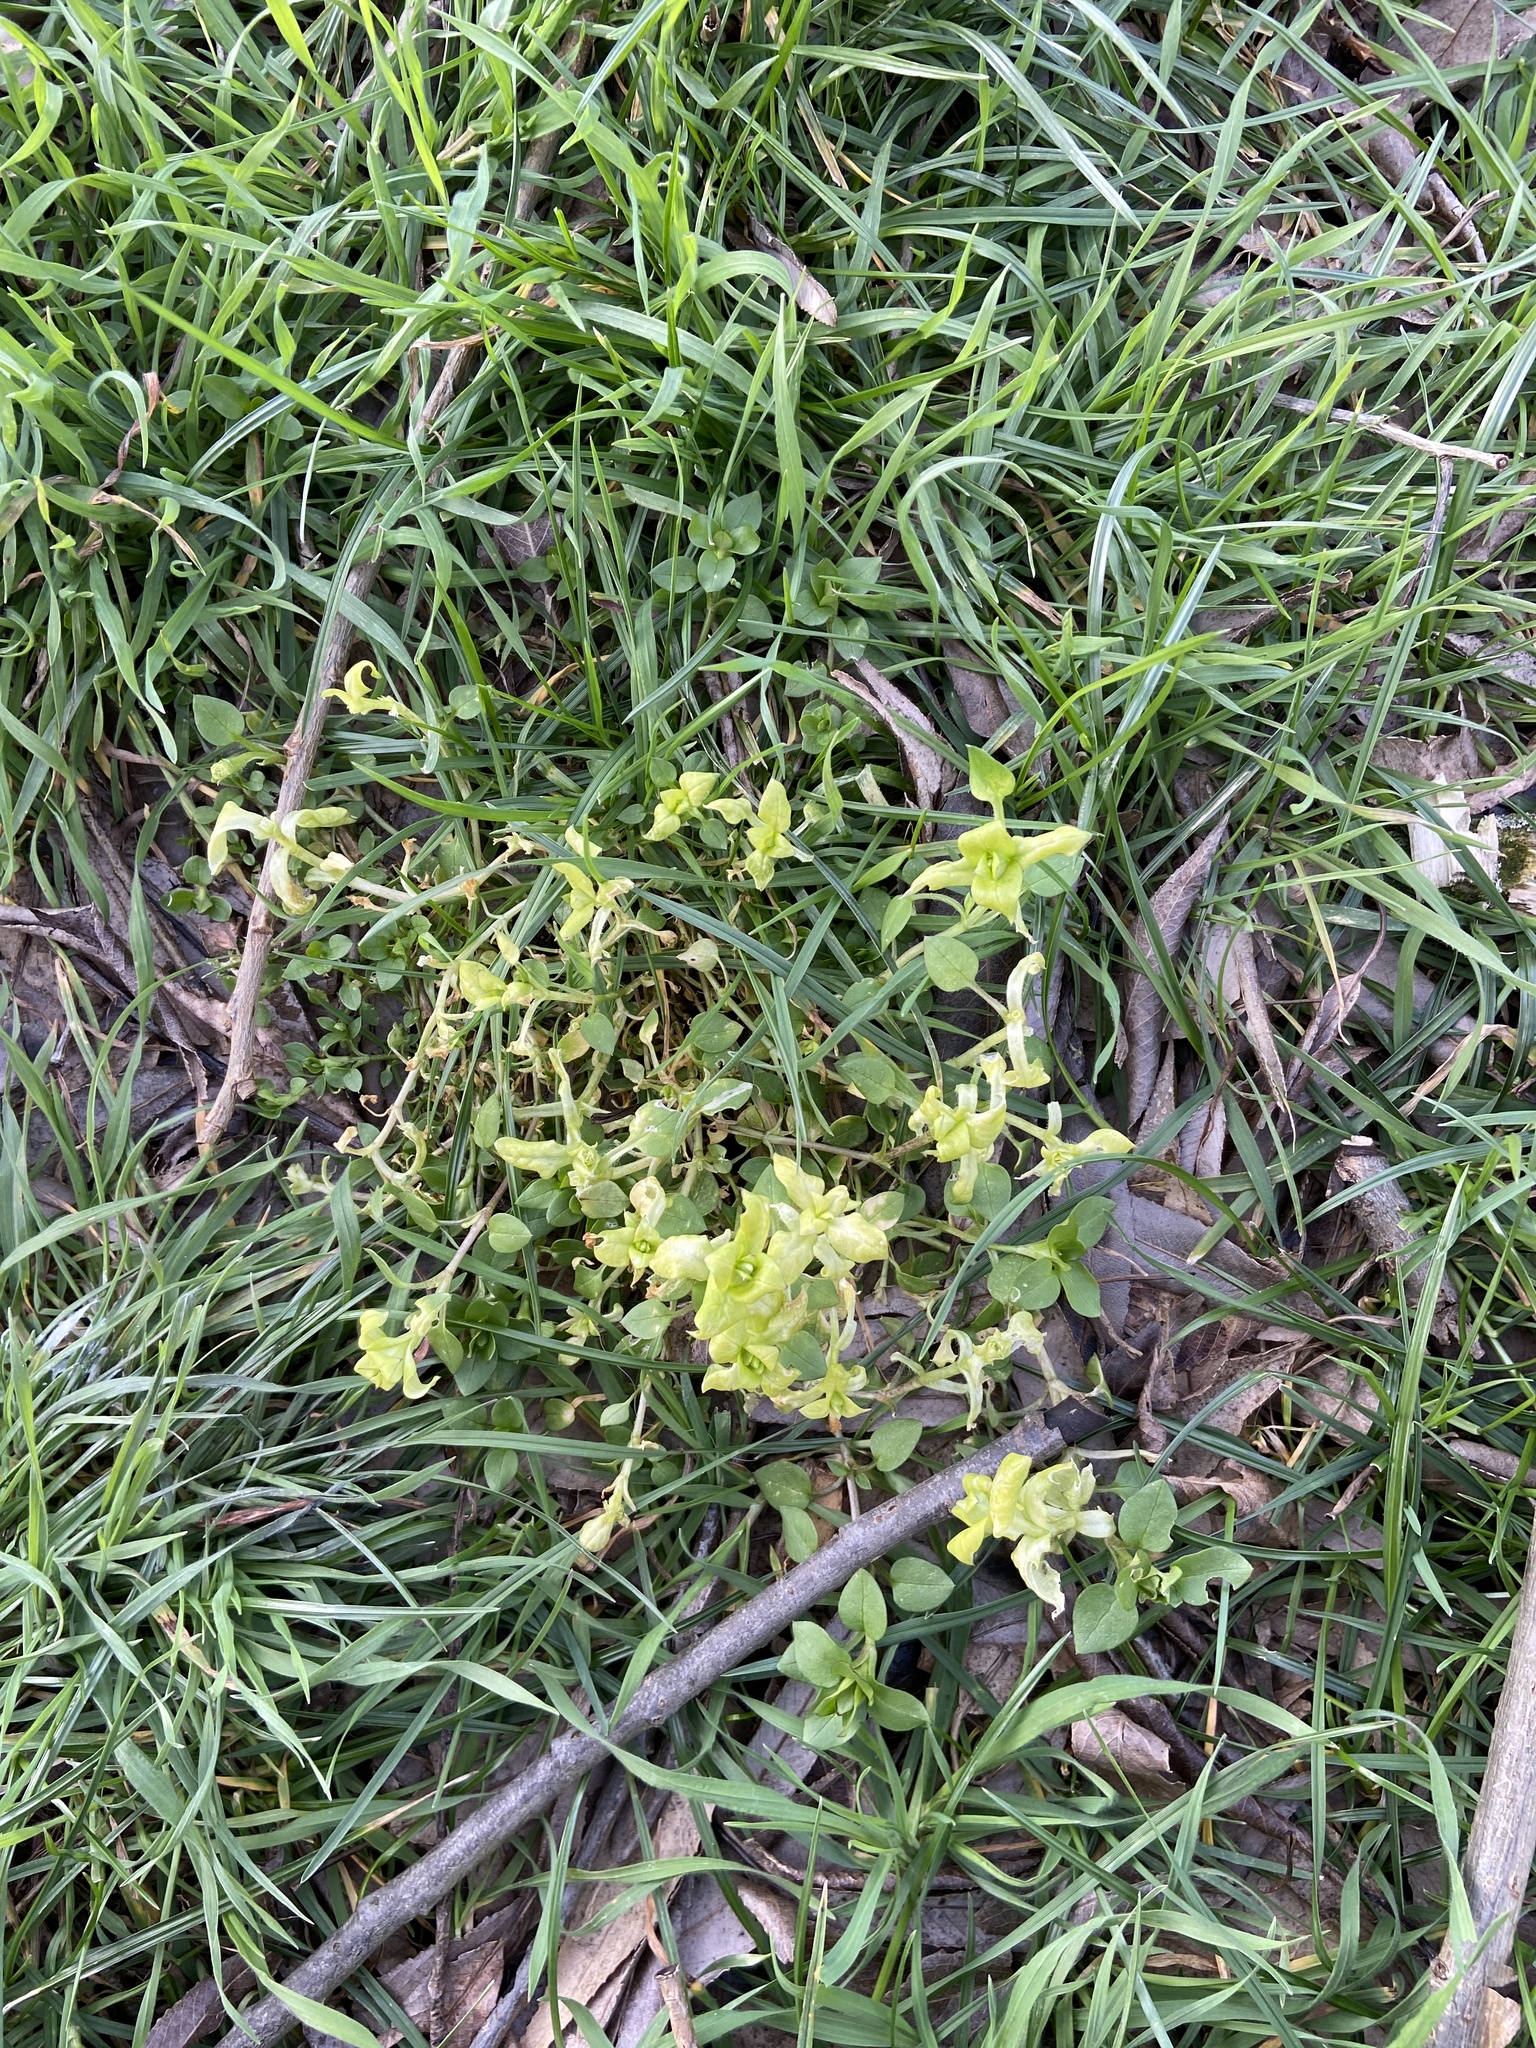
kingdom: Plantae
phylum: Tracheophyta
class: Magnoliopsida
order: Caryophyllales
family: Caryophyllaceae
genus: Stellaria
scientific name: Stellaria media
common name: Common chickweed
